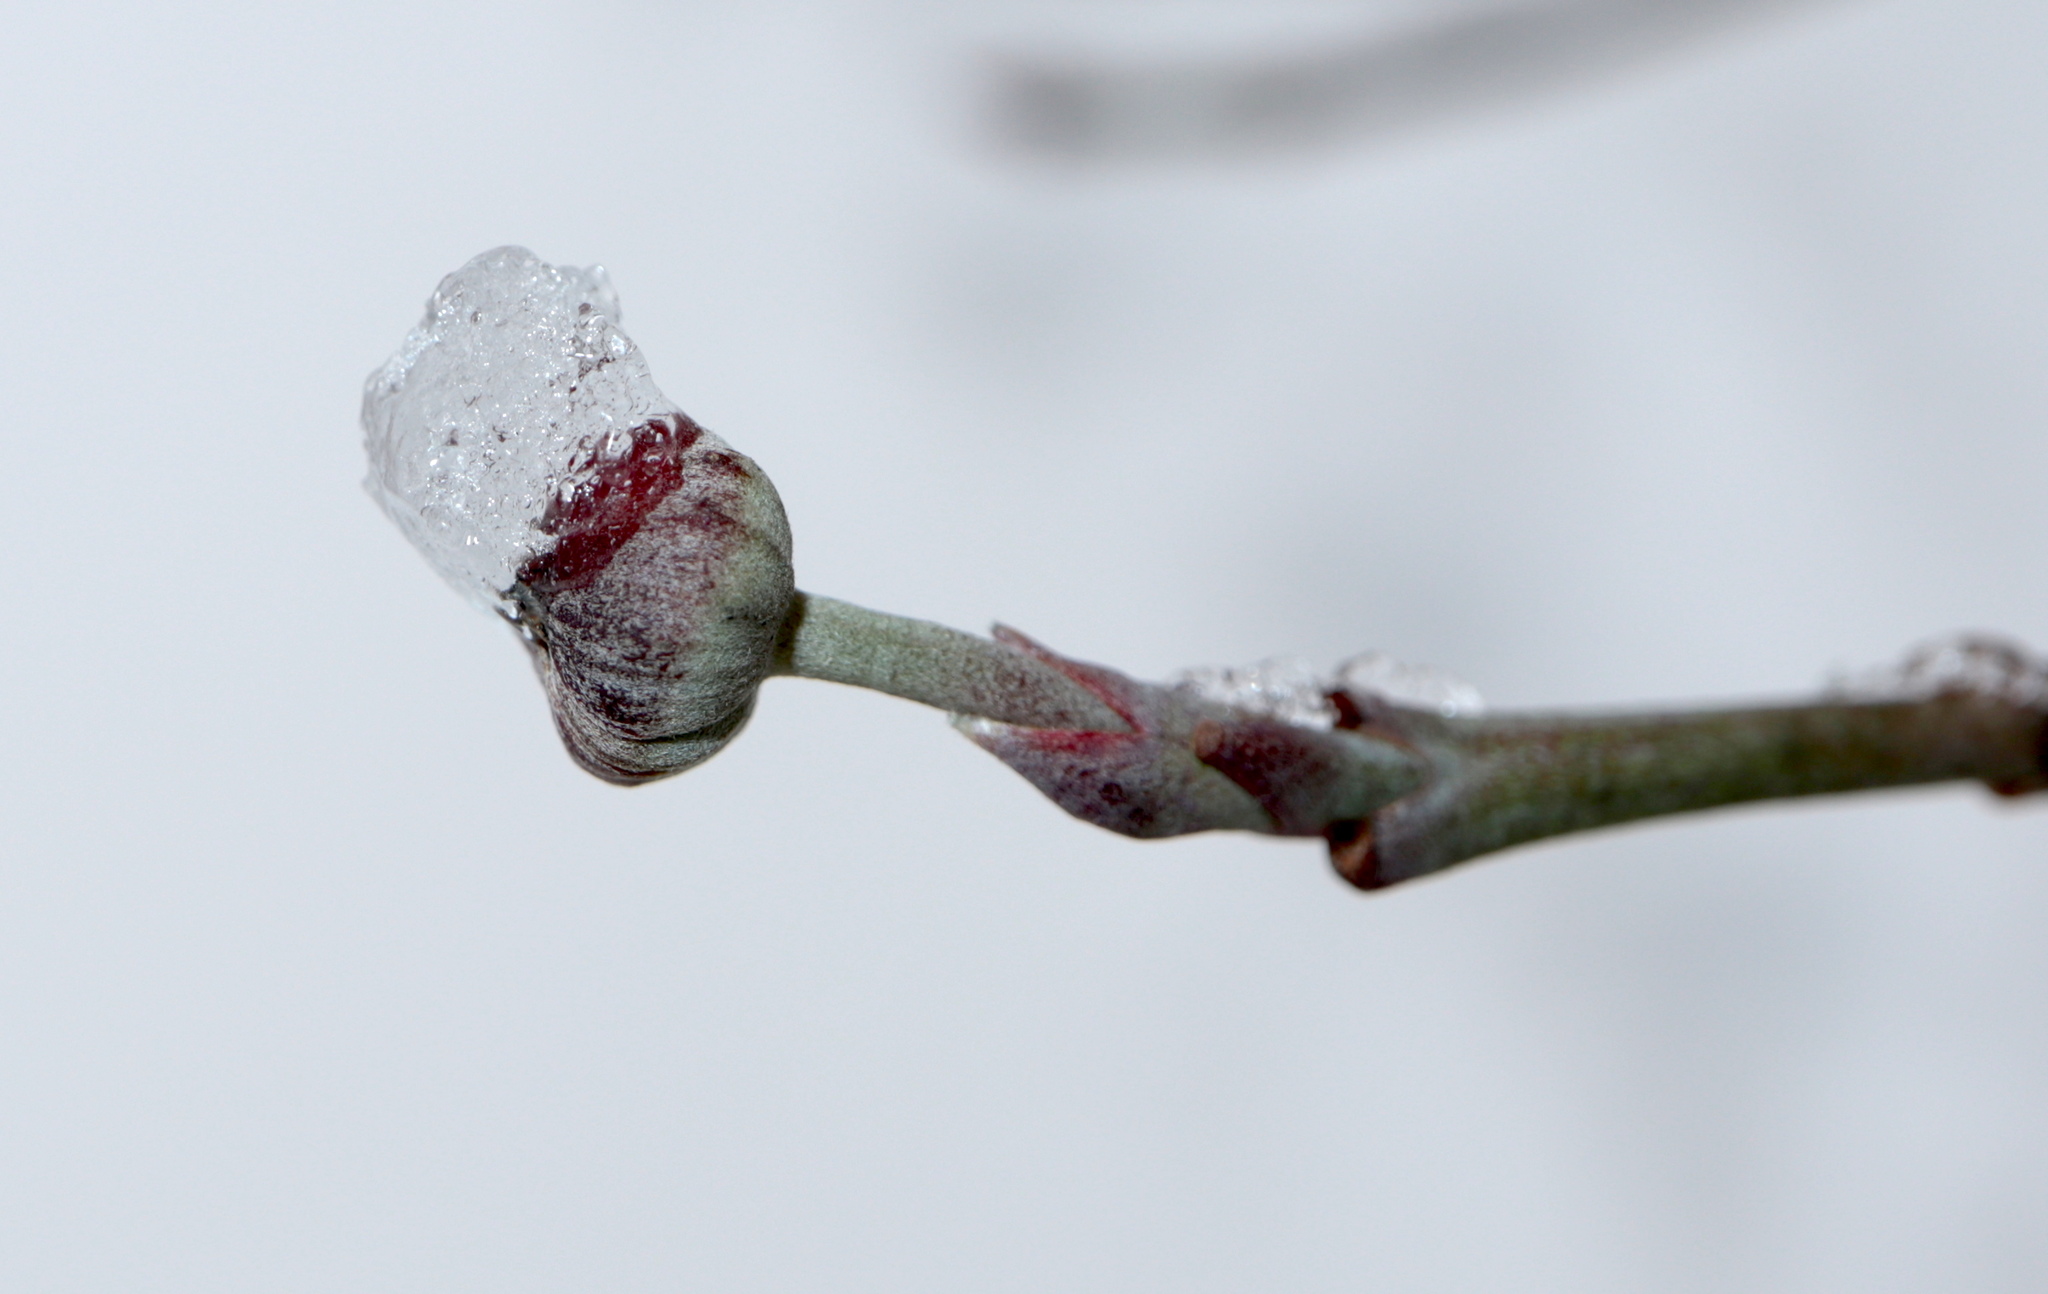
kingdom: Plantae
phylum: Tracheophyta
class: Magnoliopsida
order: Cornales
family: Cornaceae
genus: Cornus
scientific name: Cornus florida
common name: Flowering dogwood
